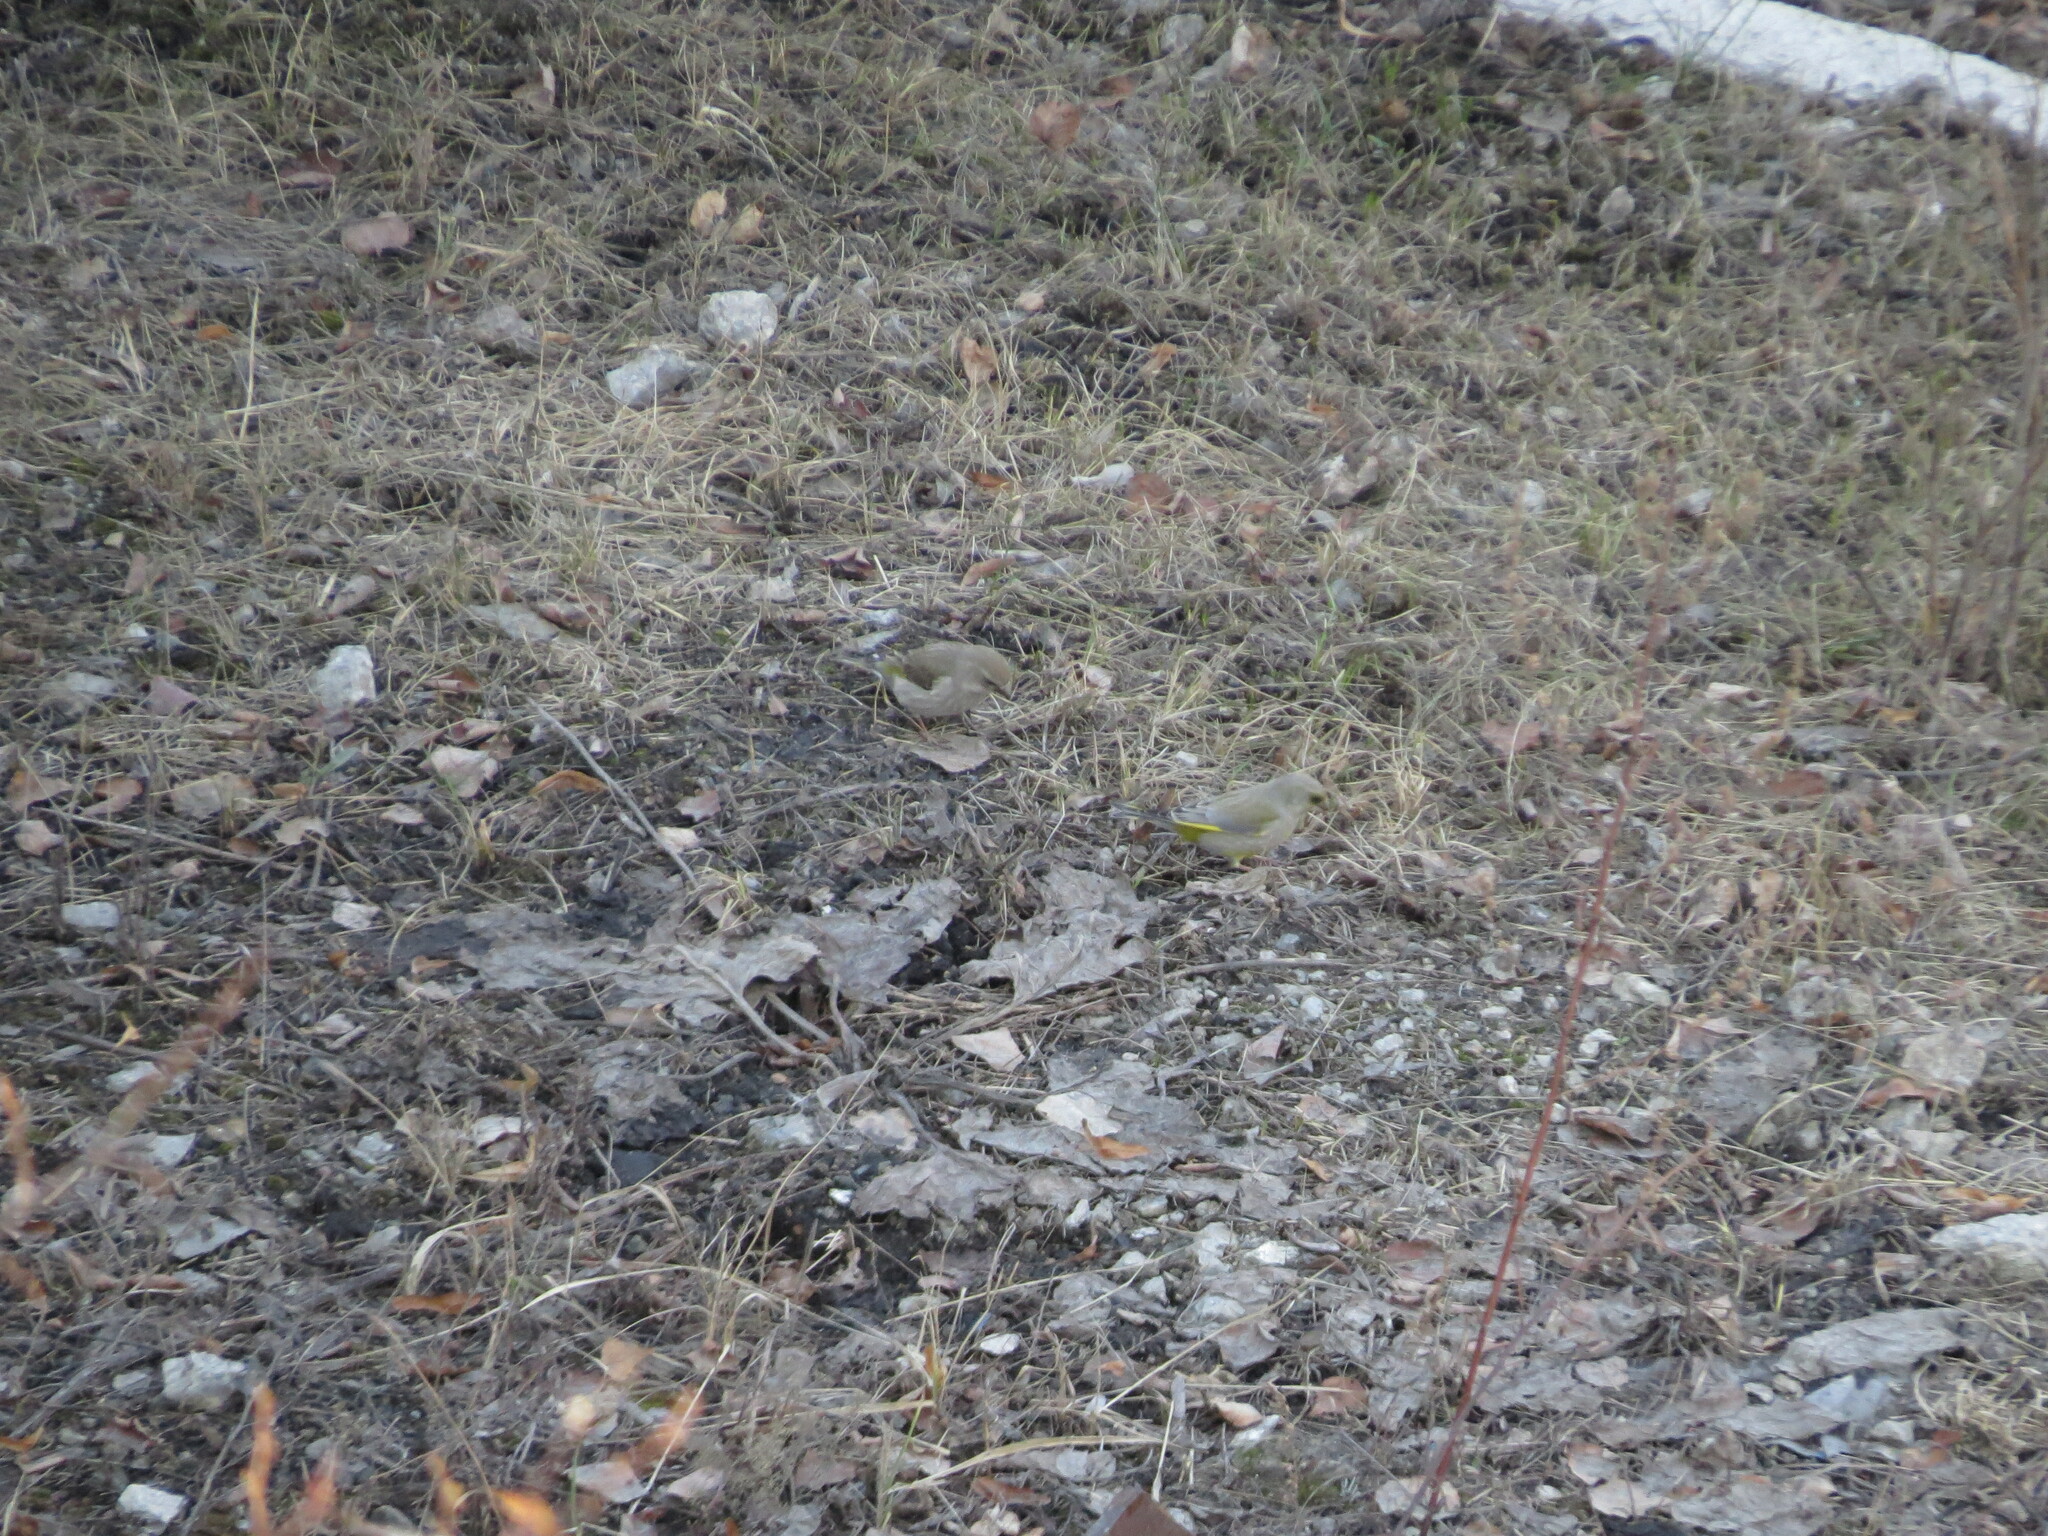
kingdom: Plantae
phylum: Tracheophyta
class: Liliopsida
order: Poales
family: Poaceae
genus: Chloris
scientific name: Chloris chloris
